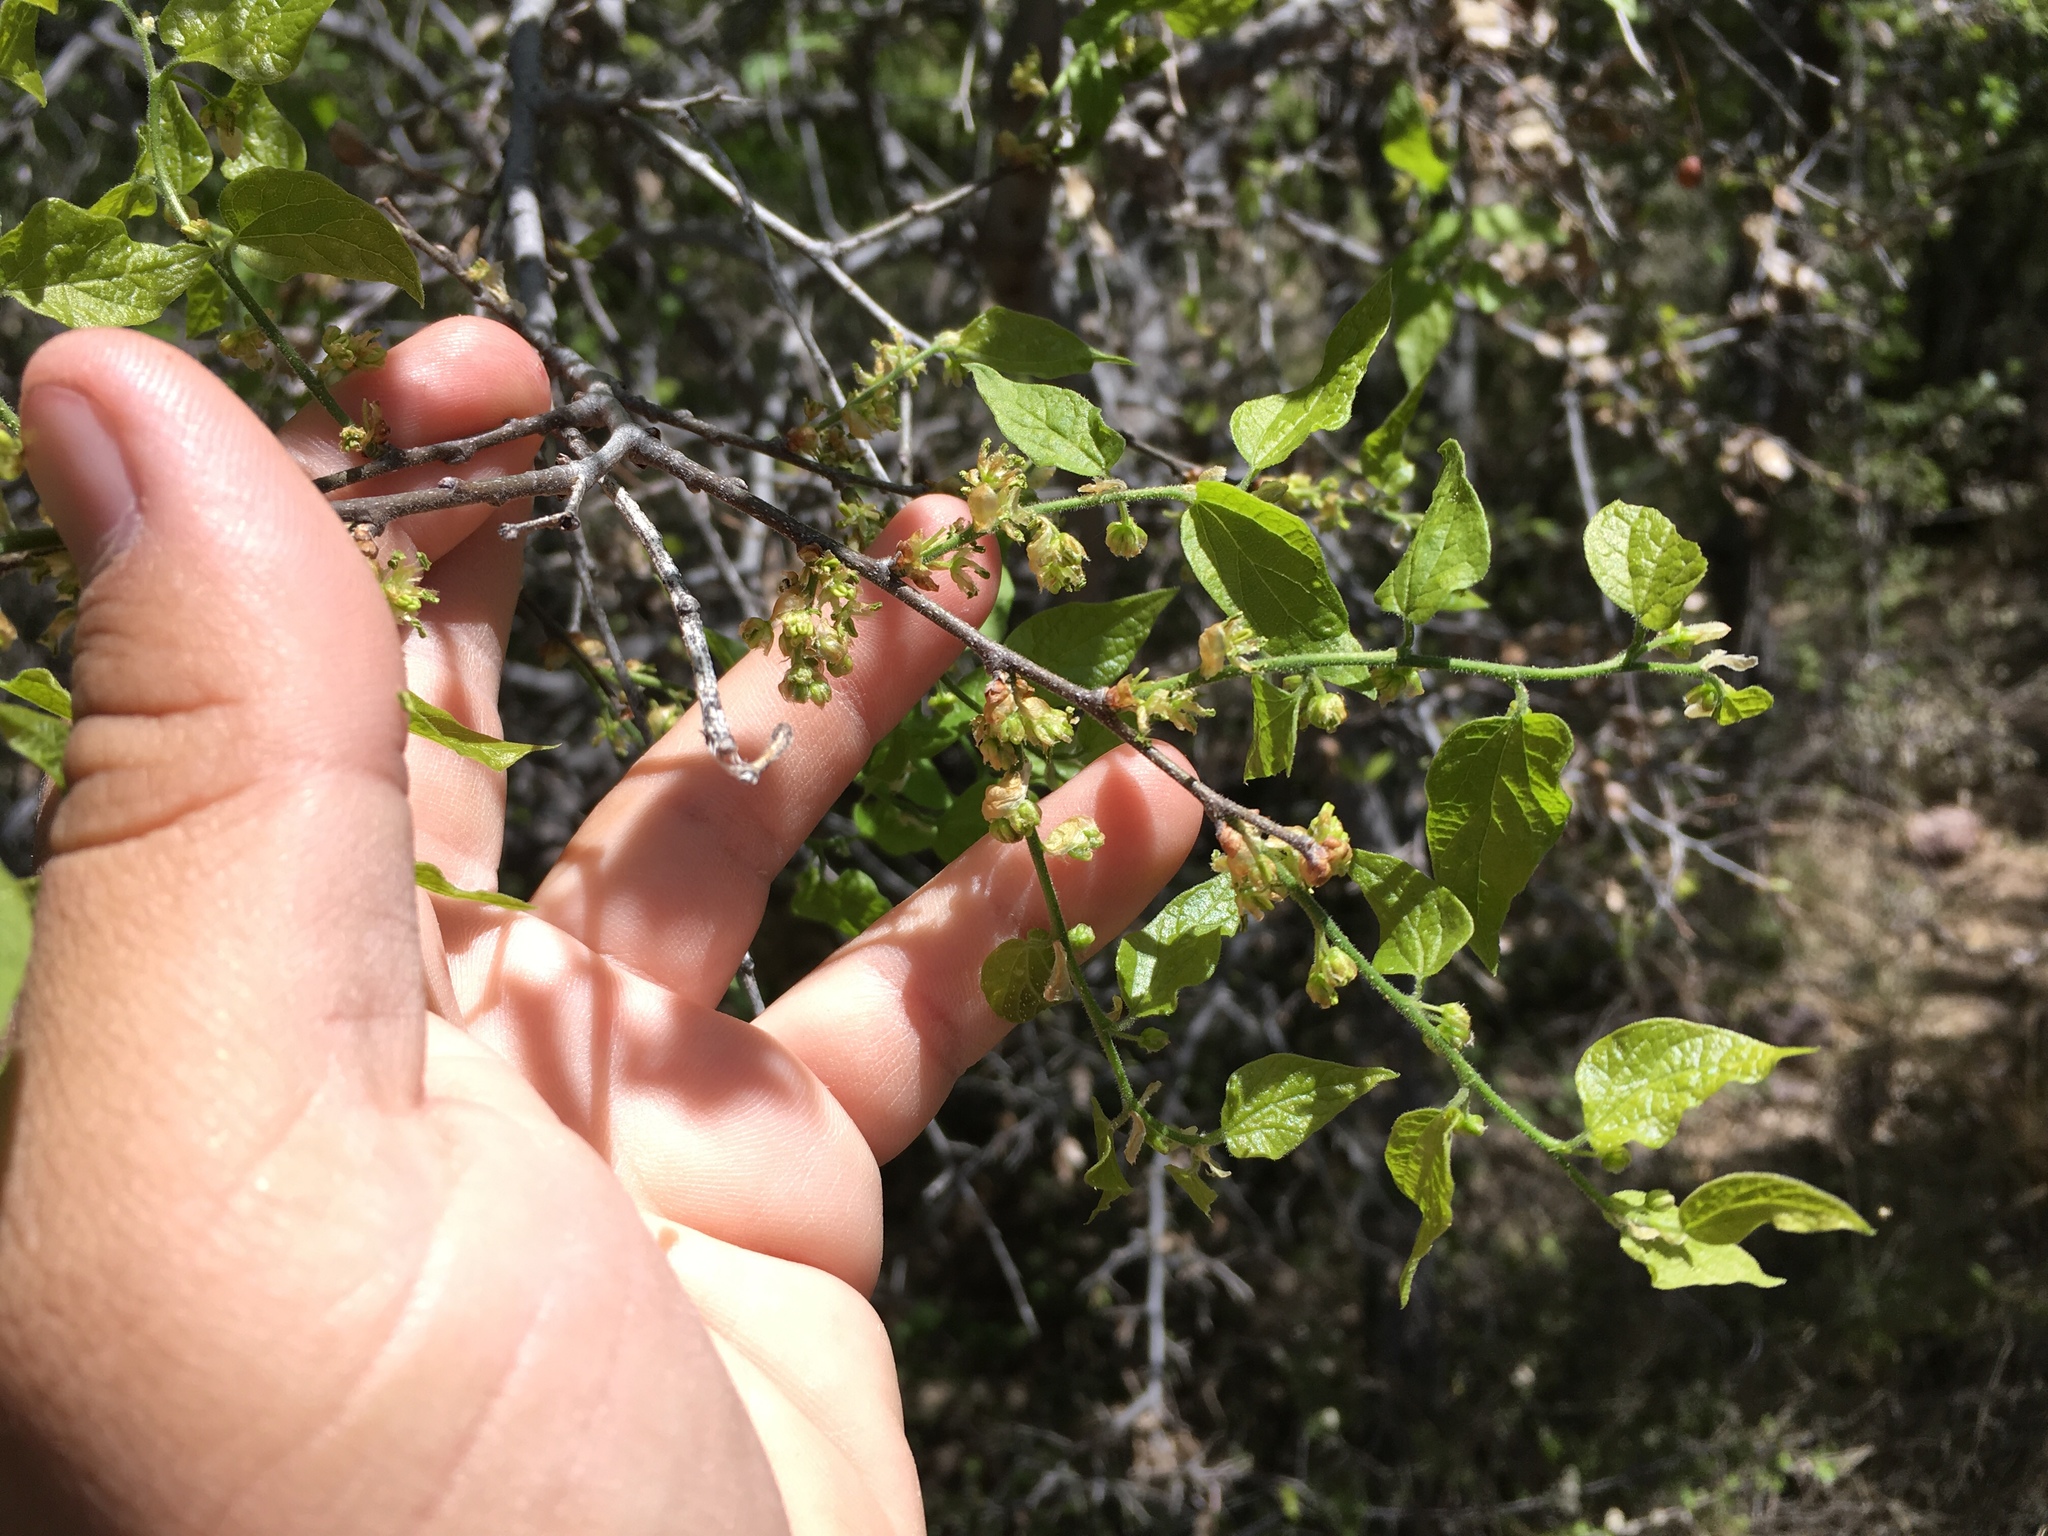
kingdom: Plantae
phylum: Tracheophyta
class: Magnoliopsida
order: Rosales
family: Cannabaceae
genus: Celtis
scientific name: Celtis reticulata
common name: Netleaf hackberry
